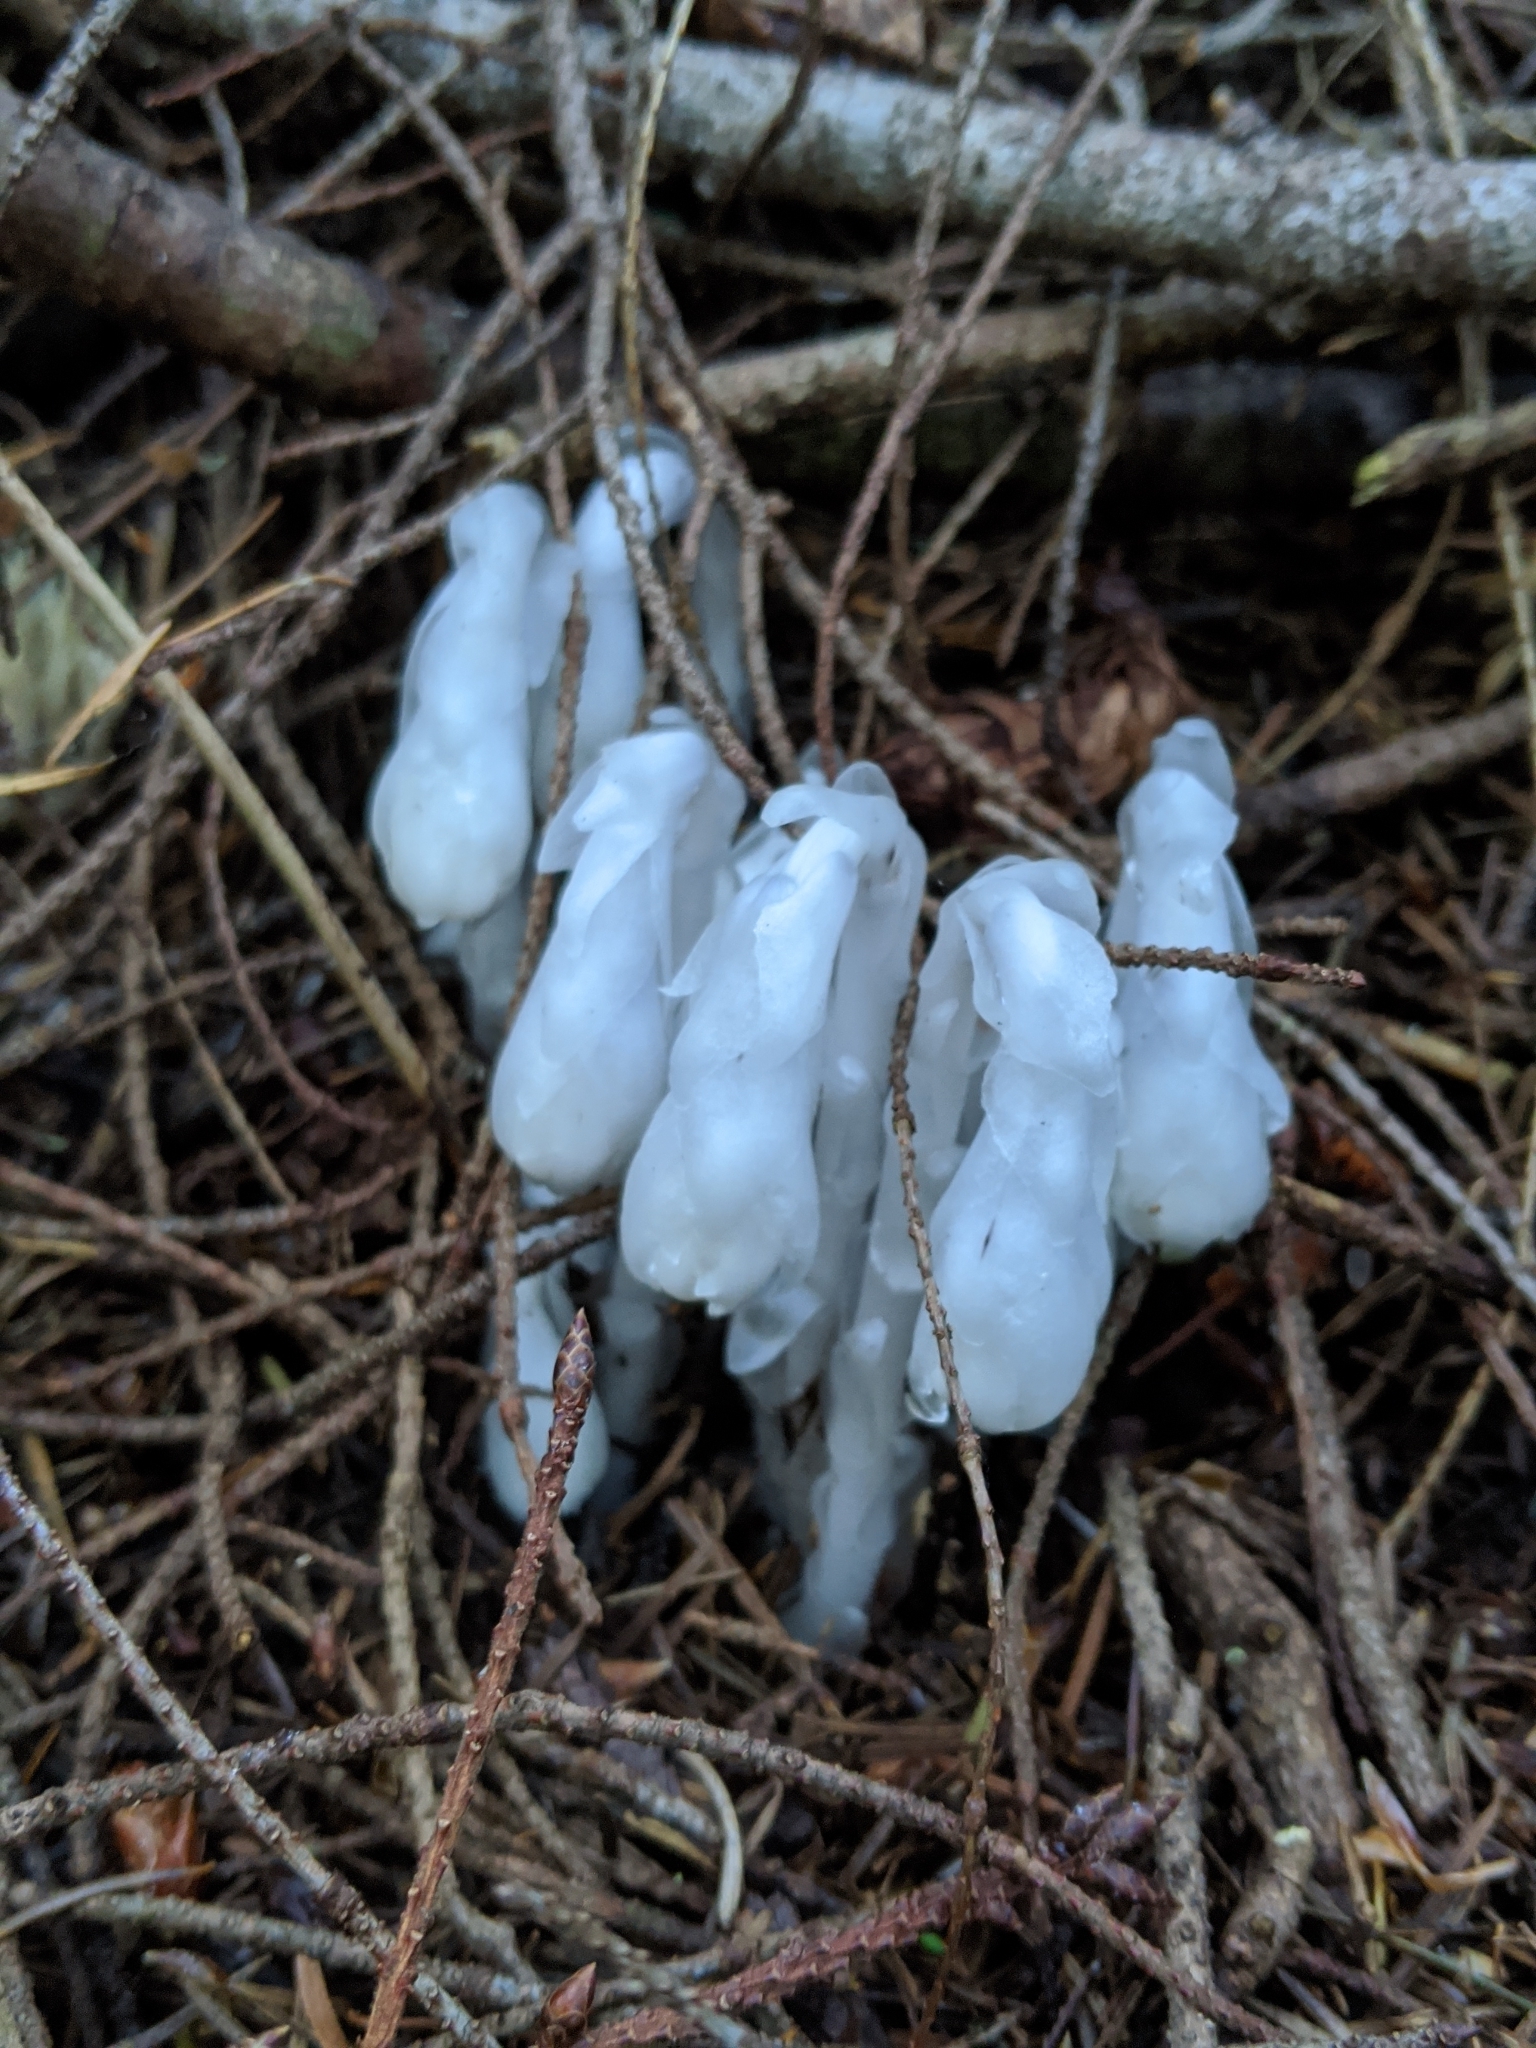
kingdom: Plantae
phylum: Tracheophyta
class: Magnoliopsida
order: Ericales
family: Ericaceae
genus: Monotropa
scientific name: Monotropa uniflora
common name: Convulsion root
